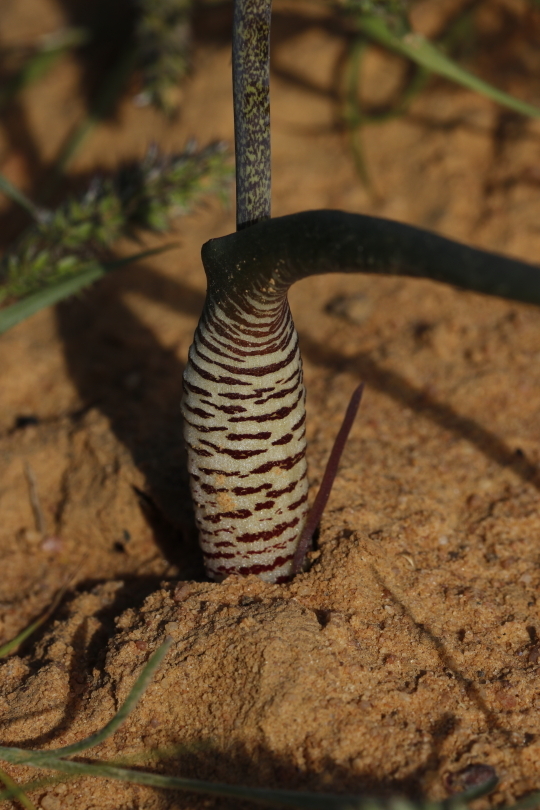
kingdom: Plantae
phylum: Tracheophyta
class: Liliopsida
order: Asparagales
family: Asparagaceae
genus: Lachenalia
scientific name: Lachenalia unifolia
